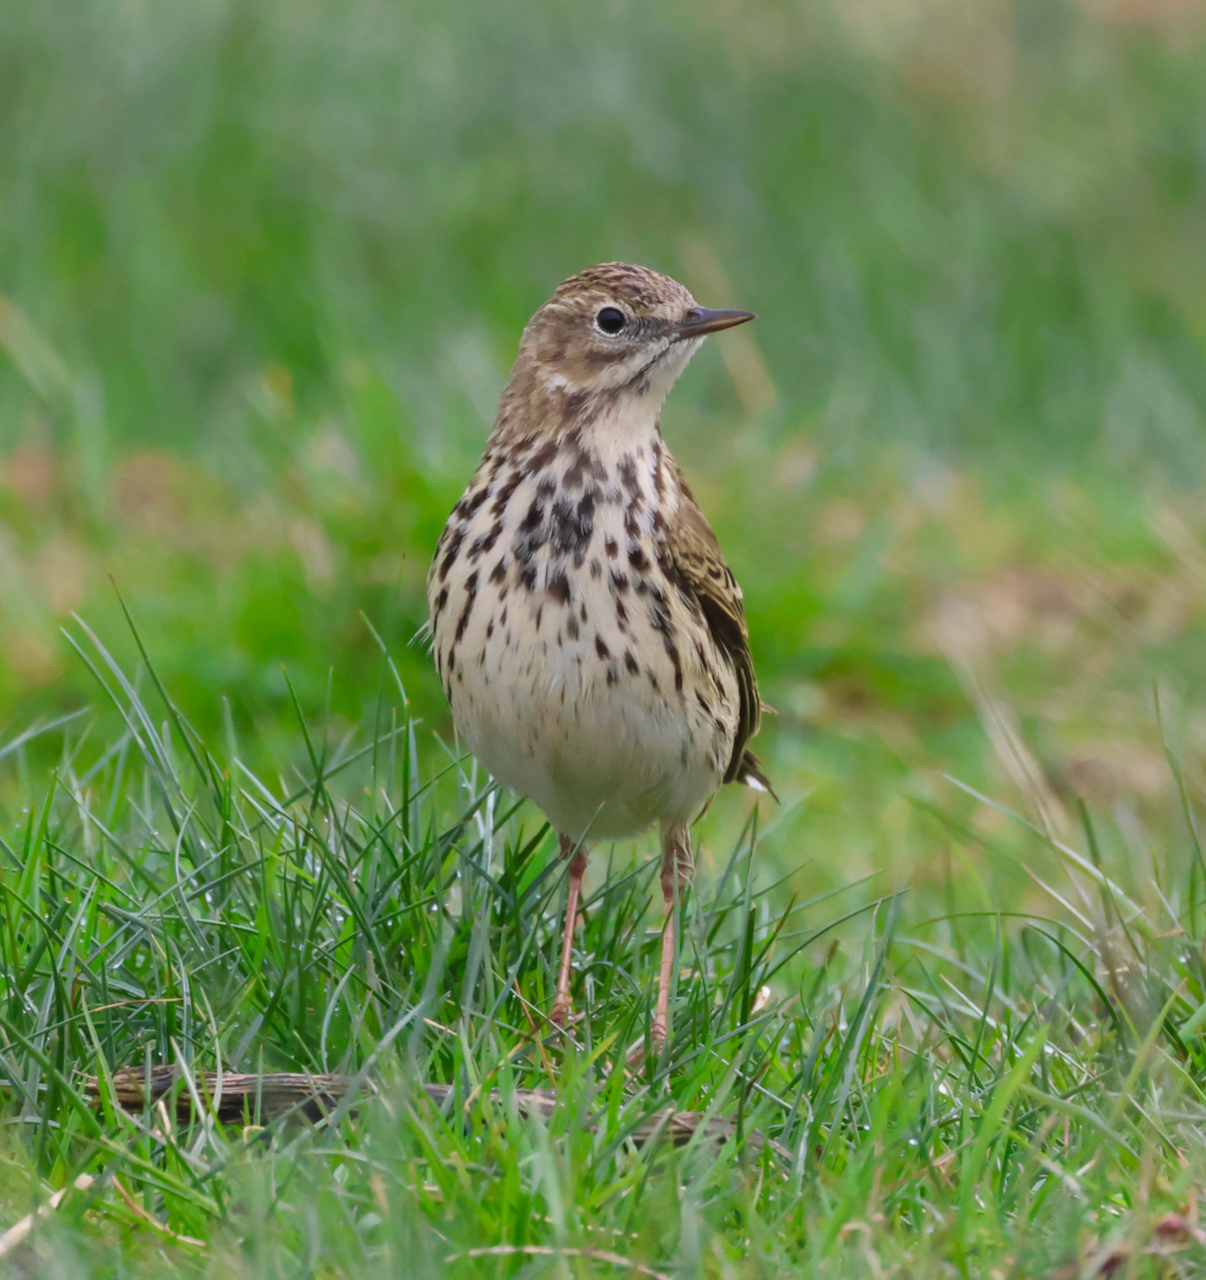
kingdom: Animalia
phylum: Chordata
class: Aves
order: Passeriformes
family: Motacillidae
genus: Anthus
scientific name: Anthus pratensis
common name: Meadow pipit
